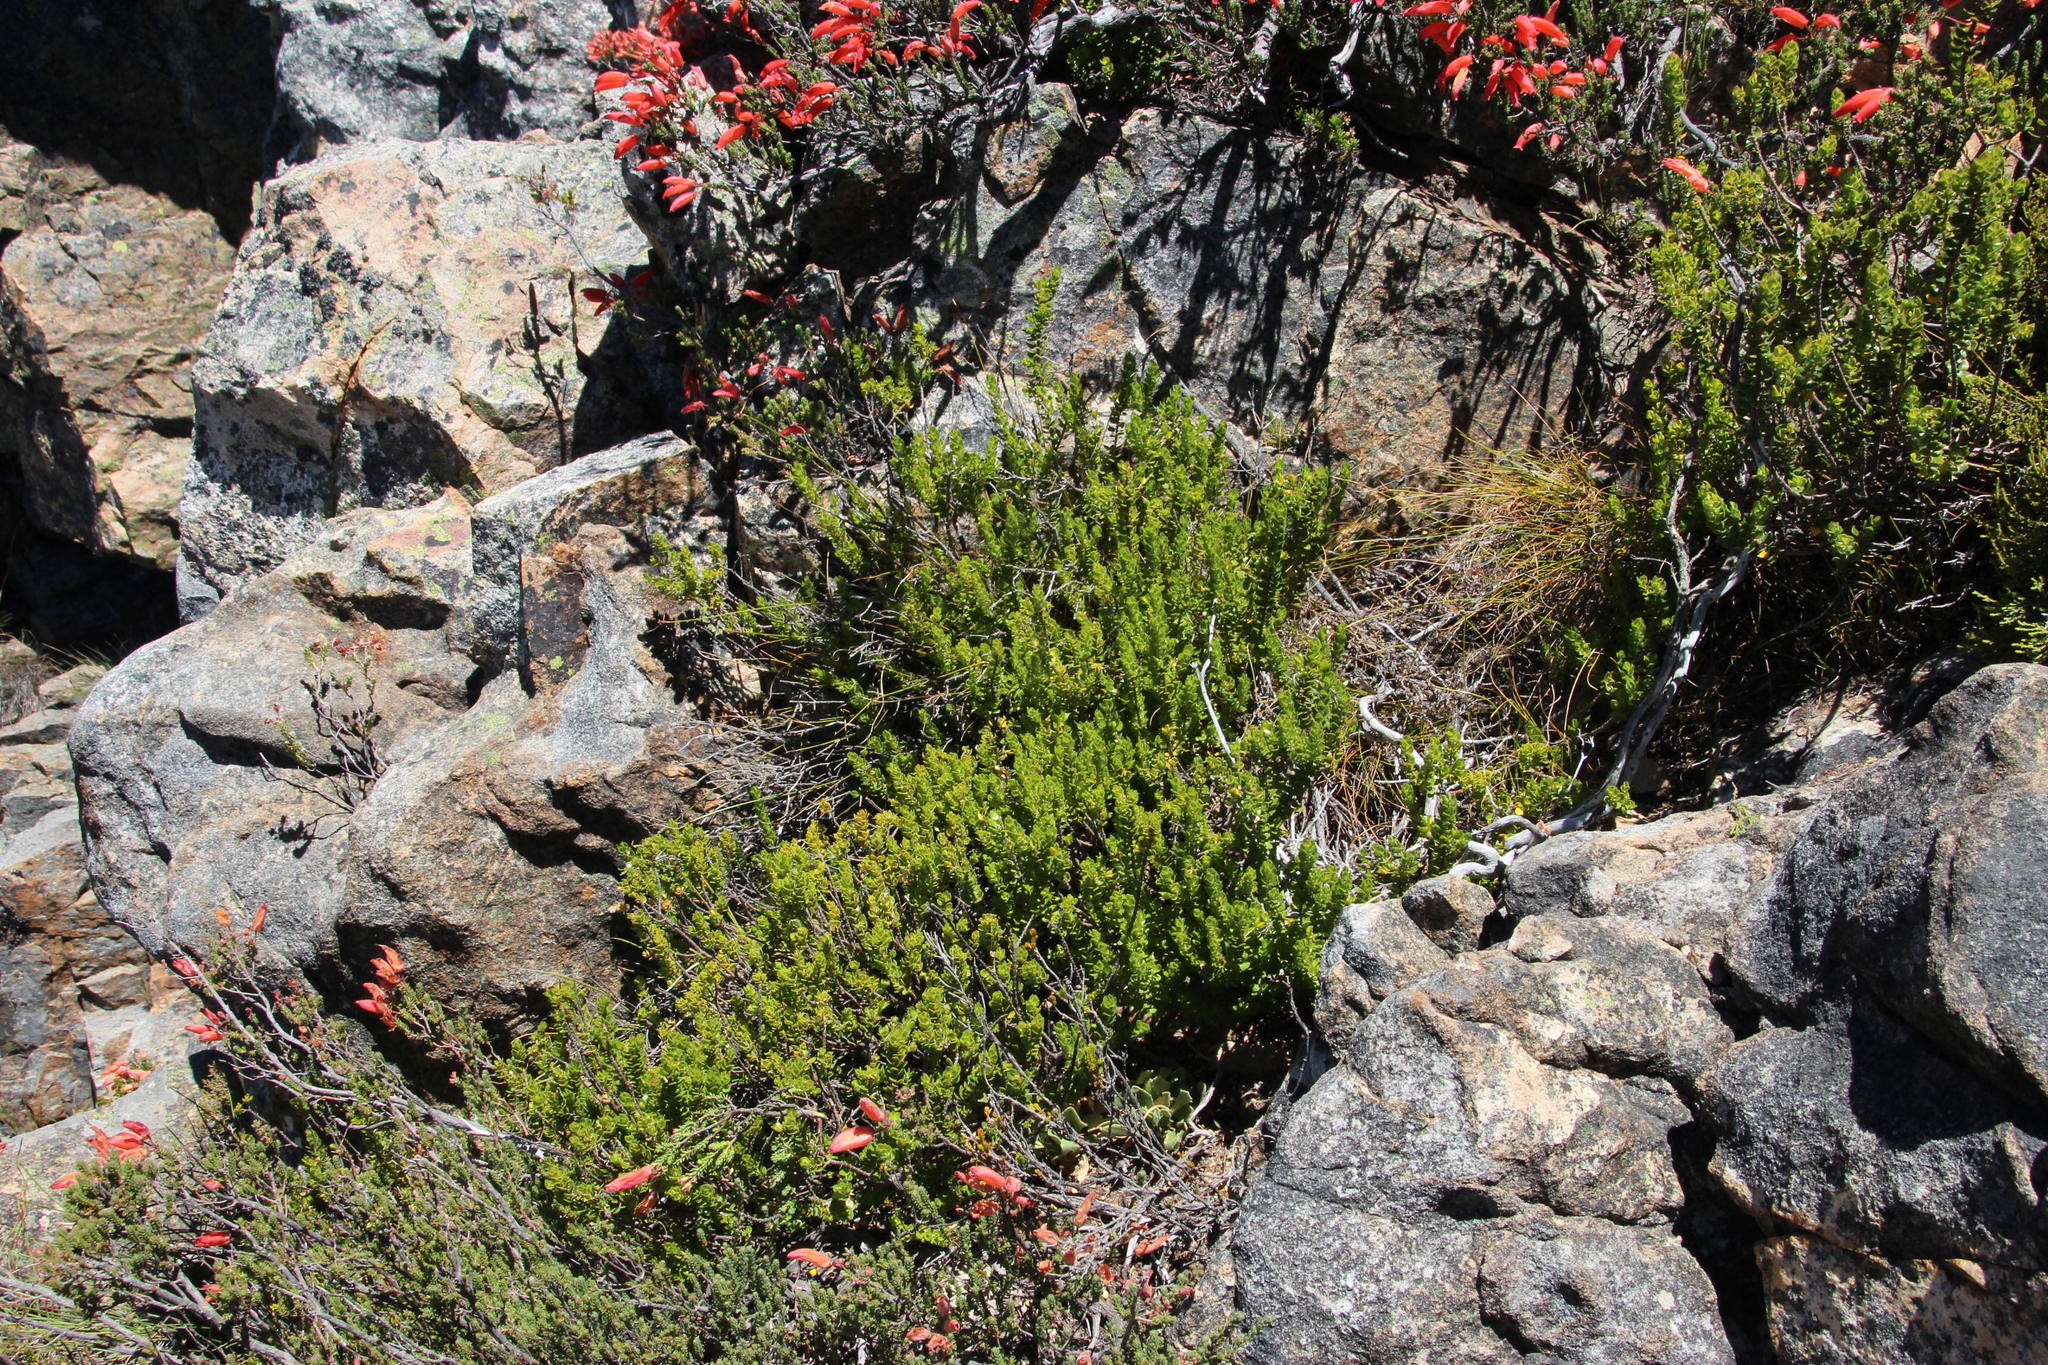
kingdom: Plantae
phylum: Tracheophyta
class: Magnoliopsida
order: Sapindales
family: Rutaceae
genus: Agathosma
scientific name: Agathosma odoratissima
